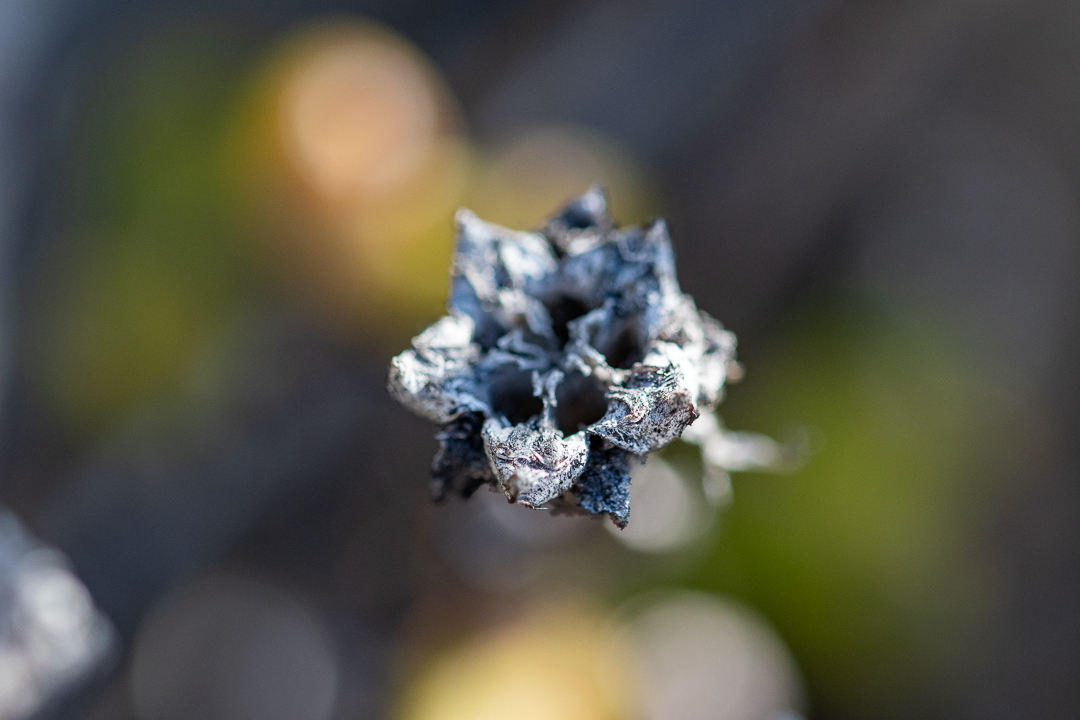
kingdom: Plantae
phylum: Tracheophyta
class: Magnoliopsida
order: Caryophyllales
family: Aizoaceae
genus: Erepsia
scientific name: Erepsia inclaudens
